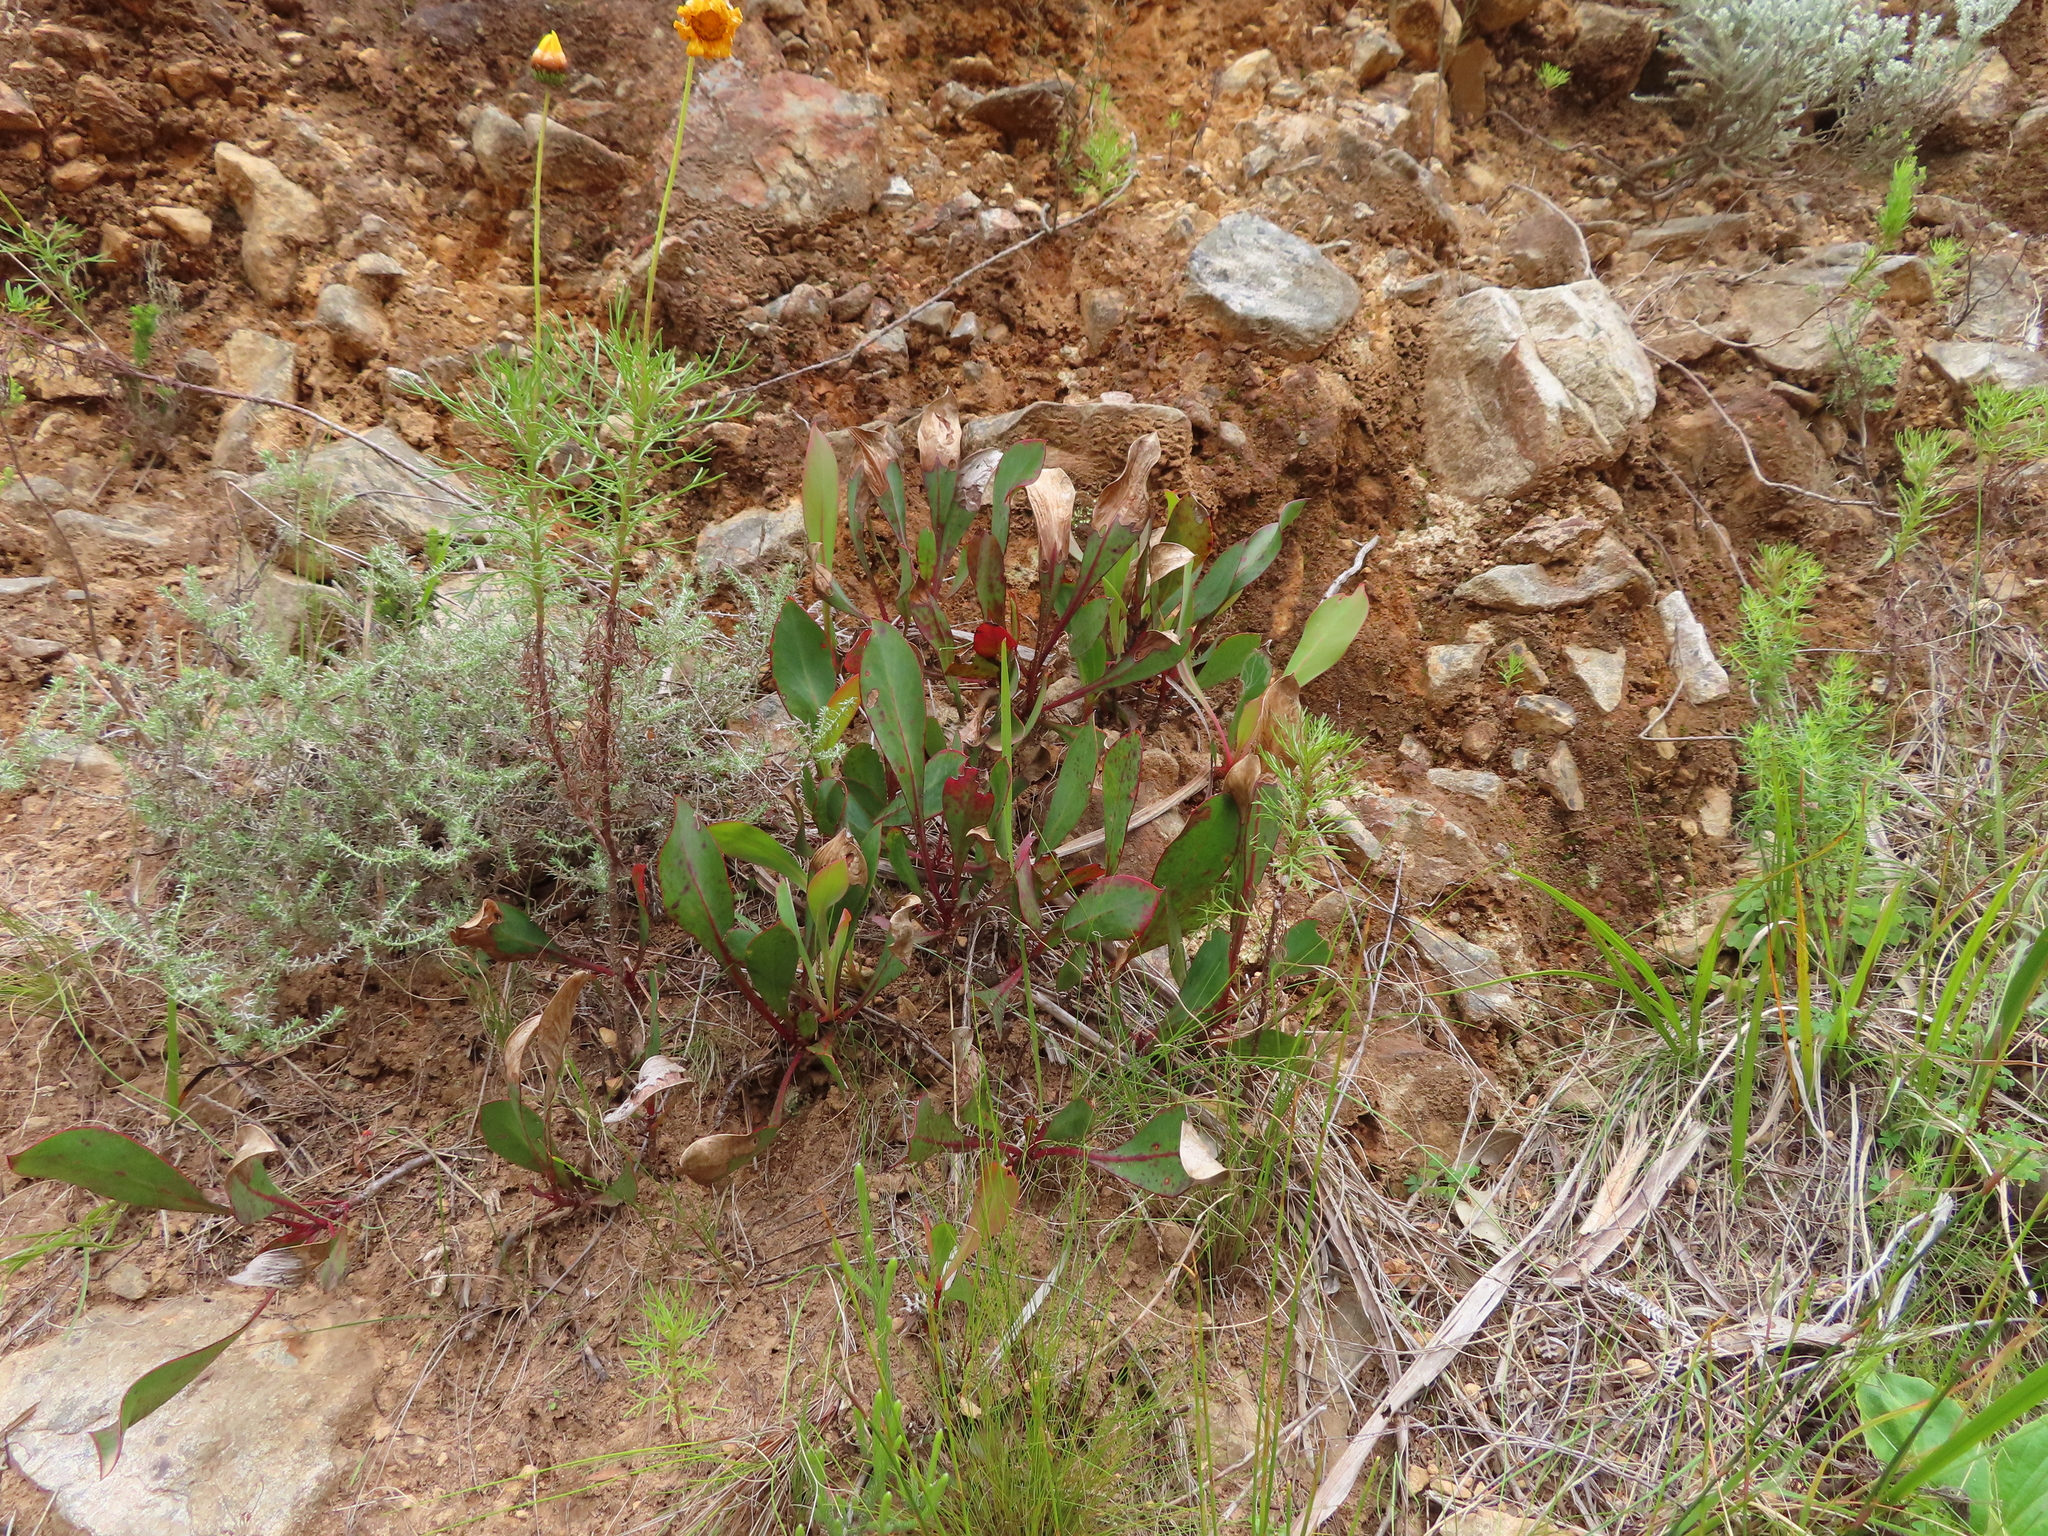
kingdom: Plantae
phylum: Tracheophyta
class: Magnoliopsida
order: Proteales
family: Proteaceae
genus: Protea
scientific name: Protea acaulos
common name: Common ground sugarbush
